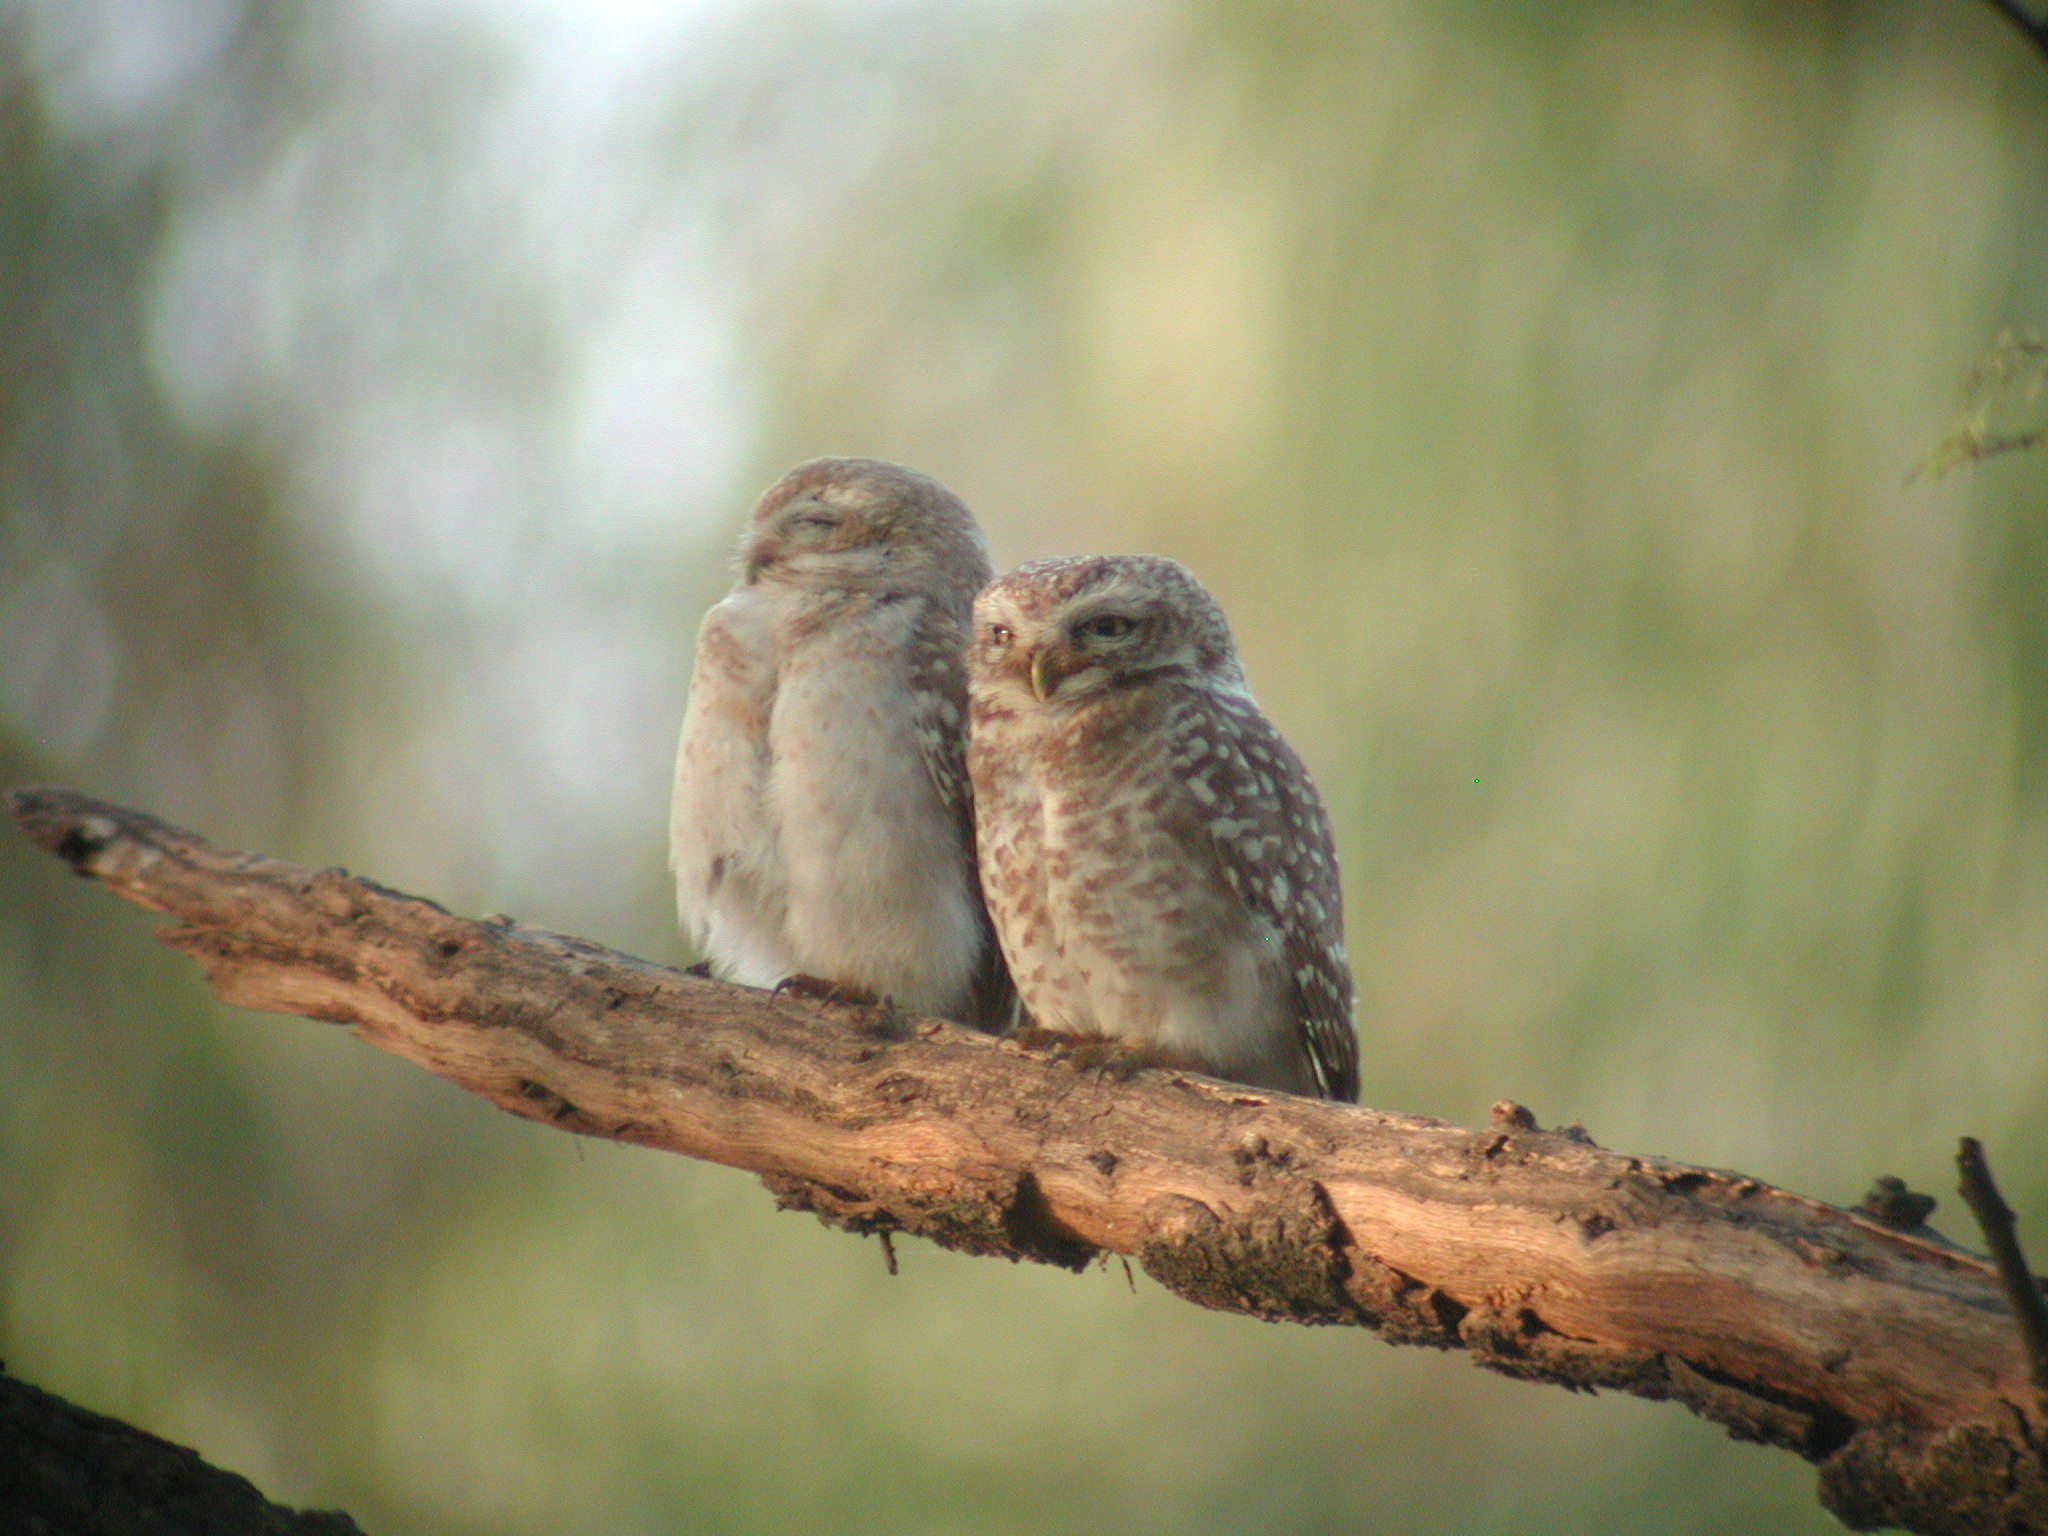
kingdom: Animalia
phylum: Chordata
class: Aves
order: Strigiformes
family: Strigidae
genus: Athene
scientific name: Athene brama
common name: Spotted owlet
